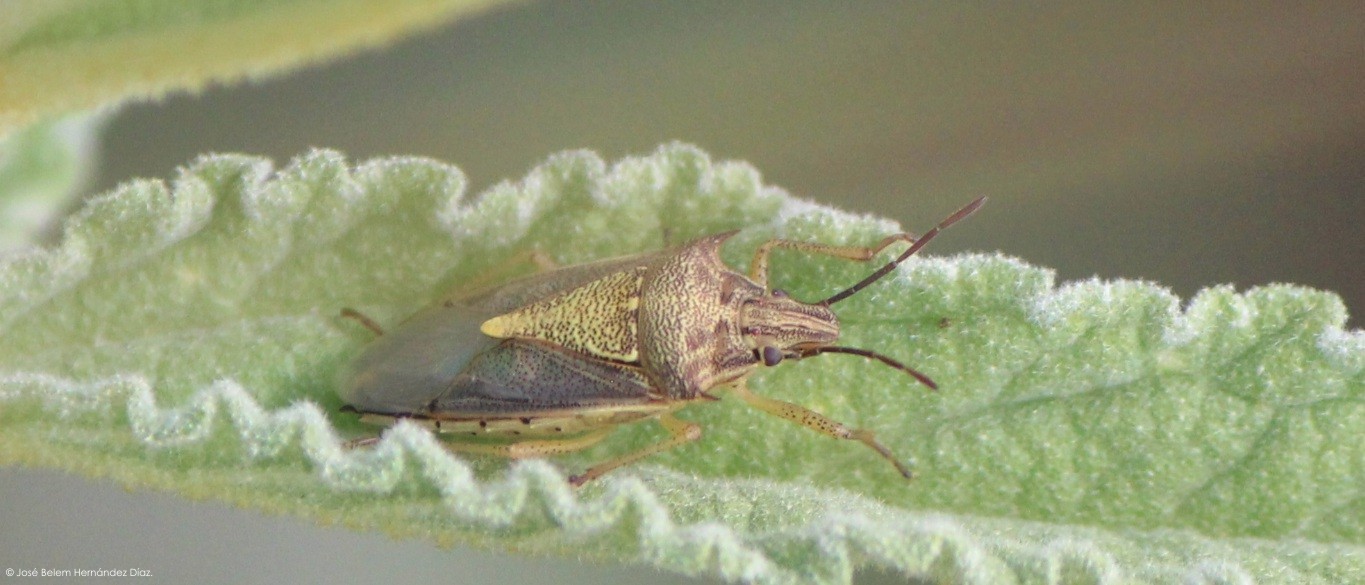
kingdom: Animalia
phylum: Arthropoda
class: Insecta
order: Hemiptera
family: Pentatomidae
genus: Oebalus
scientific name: Oebalus mexicanus
